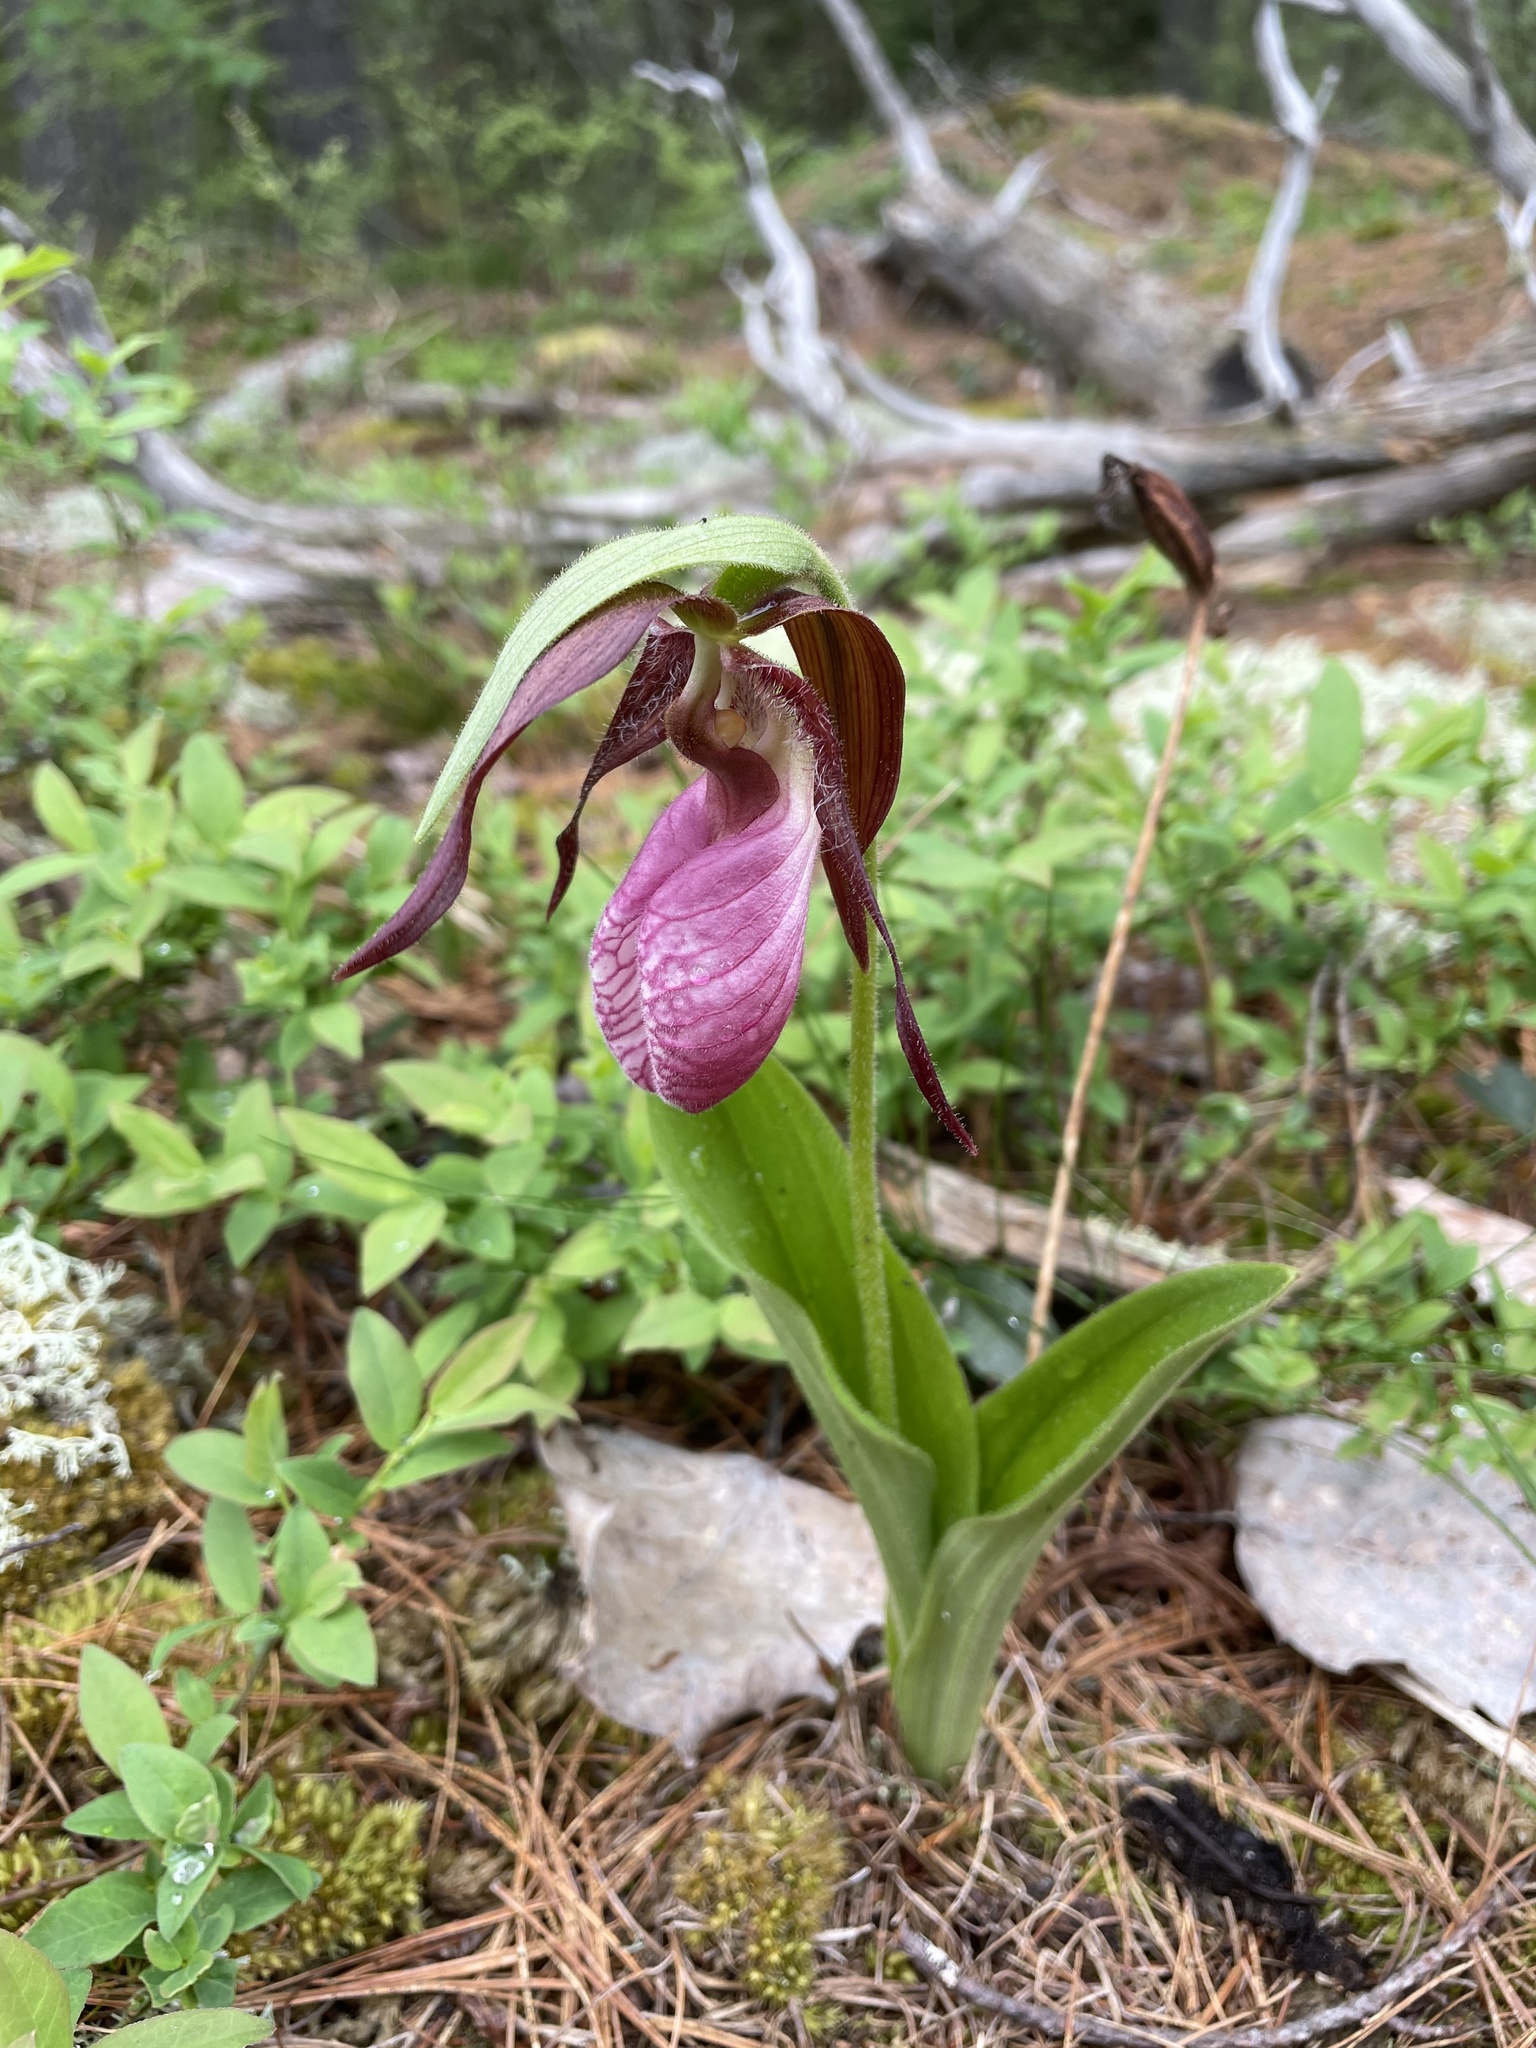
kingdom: Plantae
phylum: Tracheophyta
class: Liliopsida
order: Asparagales
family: Orchidaceae
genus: Cypripedium
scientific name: Cypripedium acaule
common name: Pink lady's-slipper
